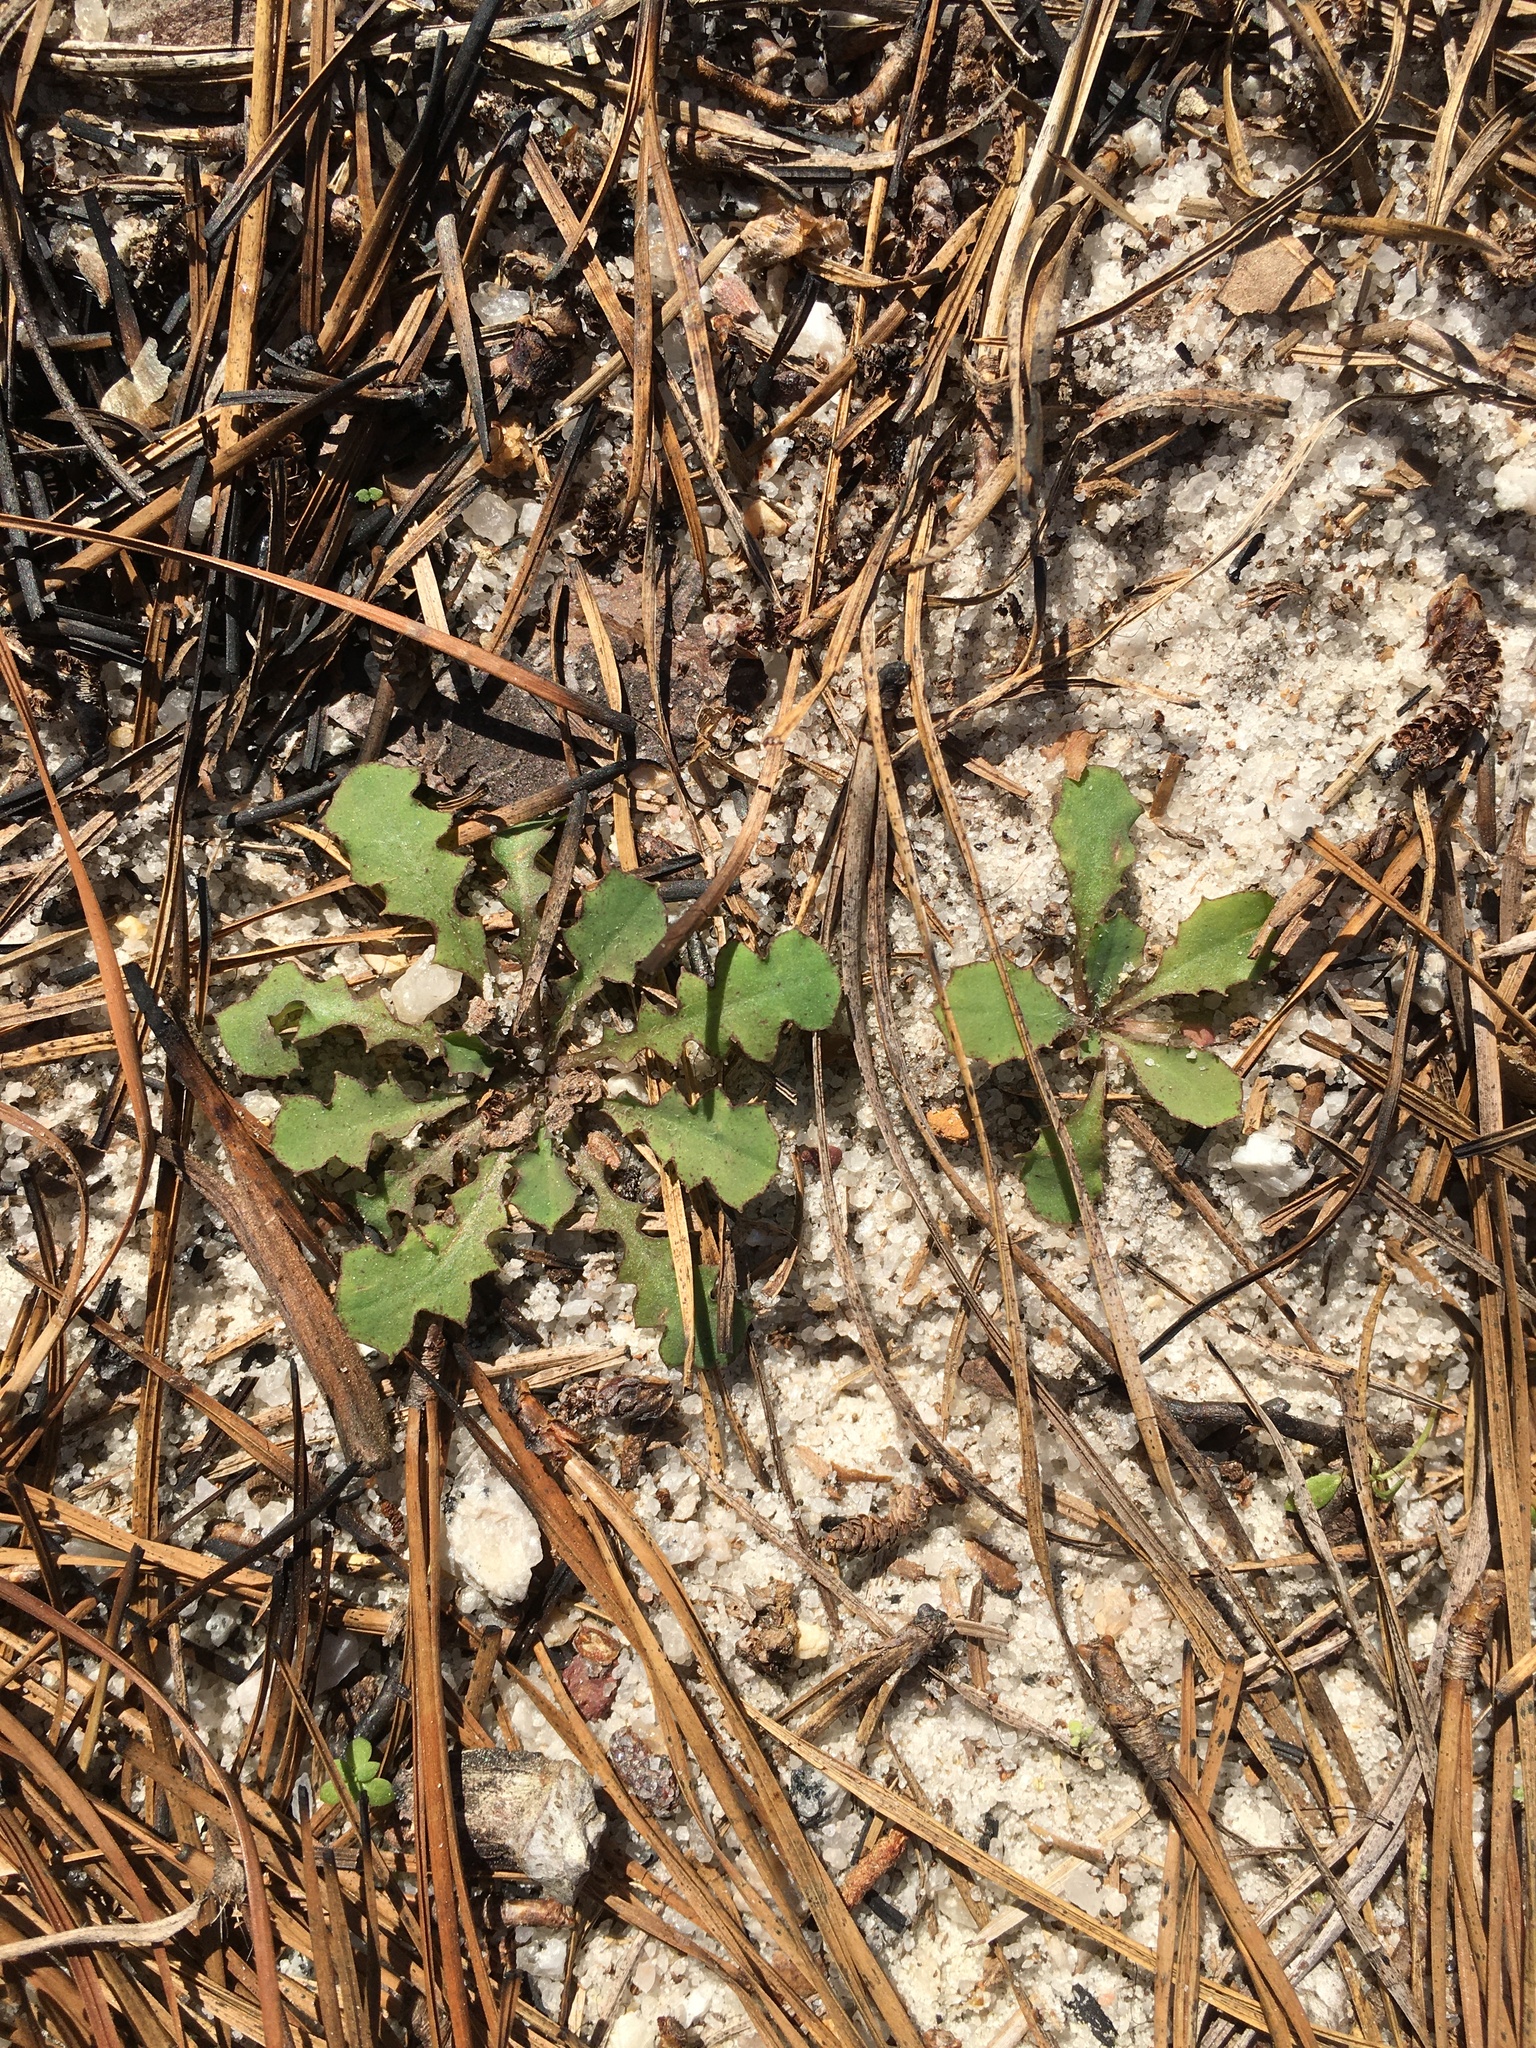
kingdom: Plantae
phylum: Tracheophyta
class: Magnoliopsida
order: Asterales
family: Asteraceae
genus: Krigia
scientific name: Krigia virginica
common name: Virginia dwarf-dandelion
